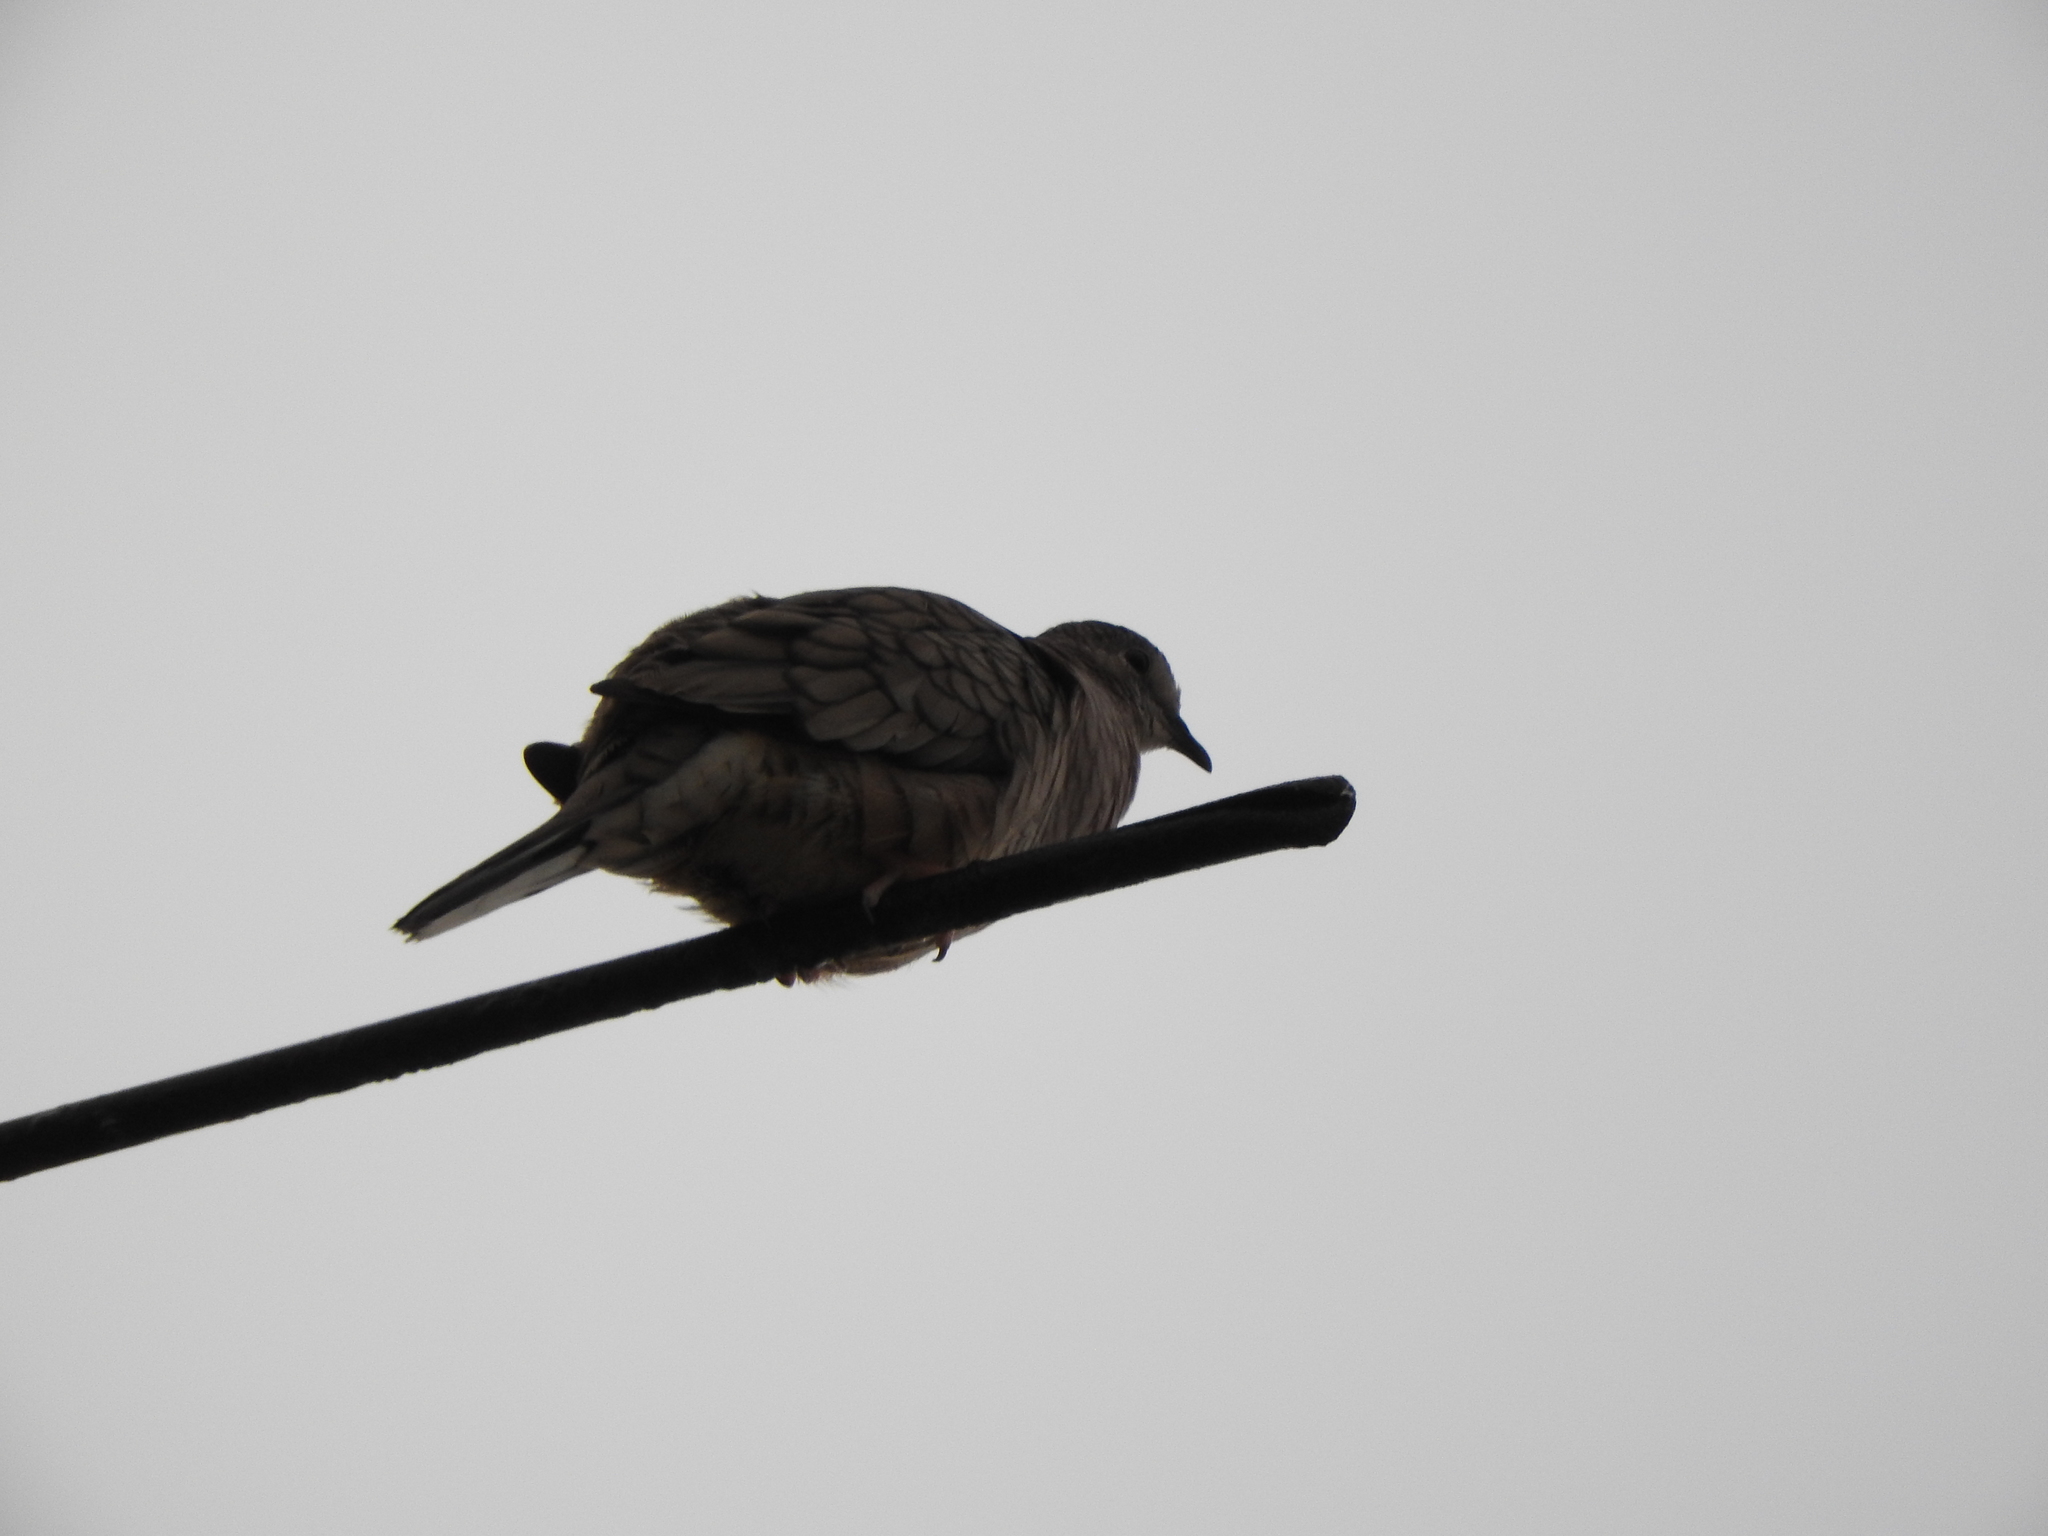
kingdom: Animalia
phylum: Chordata
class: Aves
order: Columbiformes
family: Columbidae
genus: Columbina
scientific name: Columbina inca
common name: Inca dove
